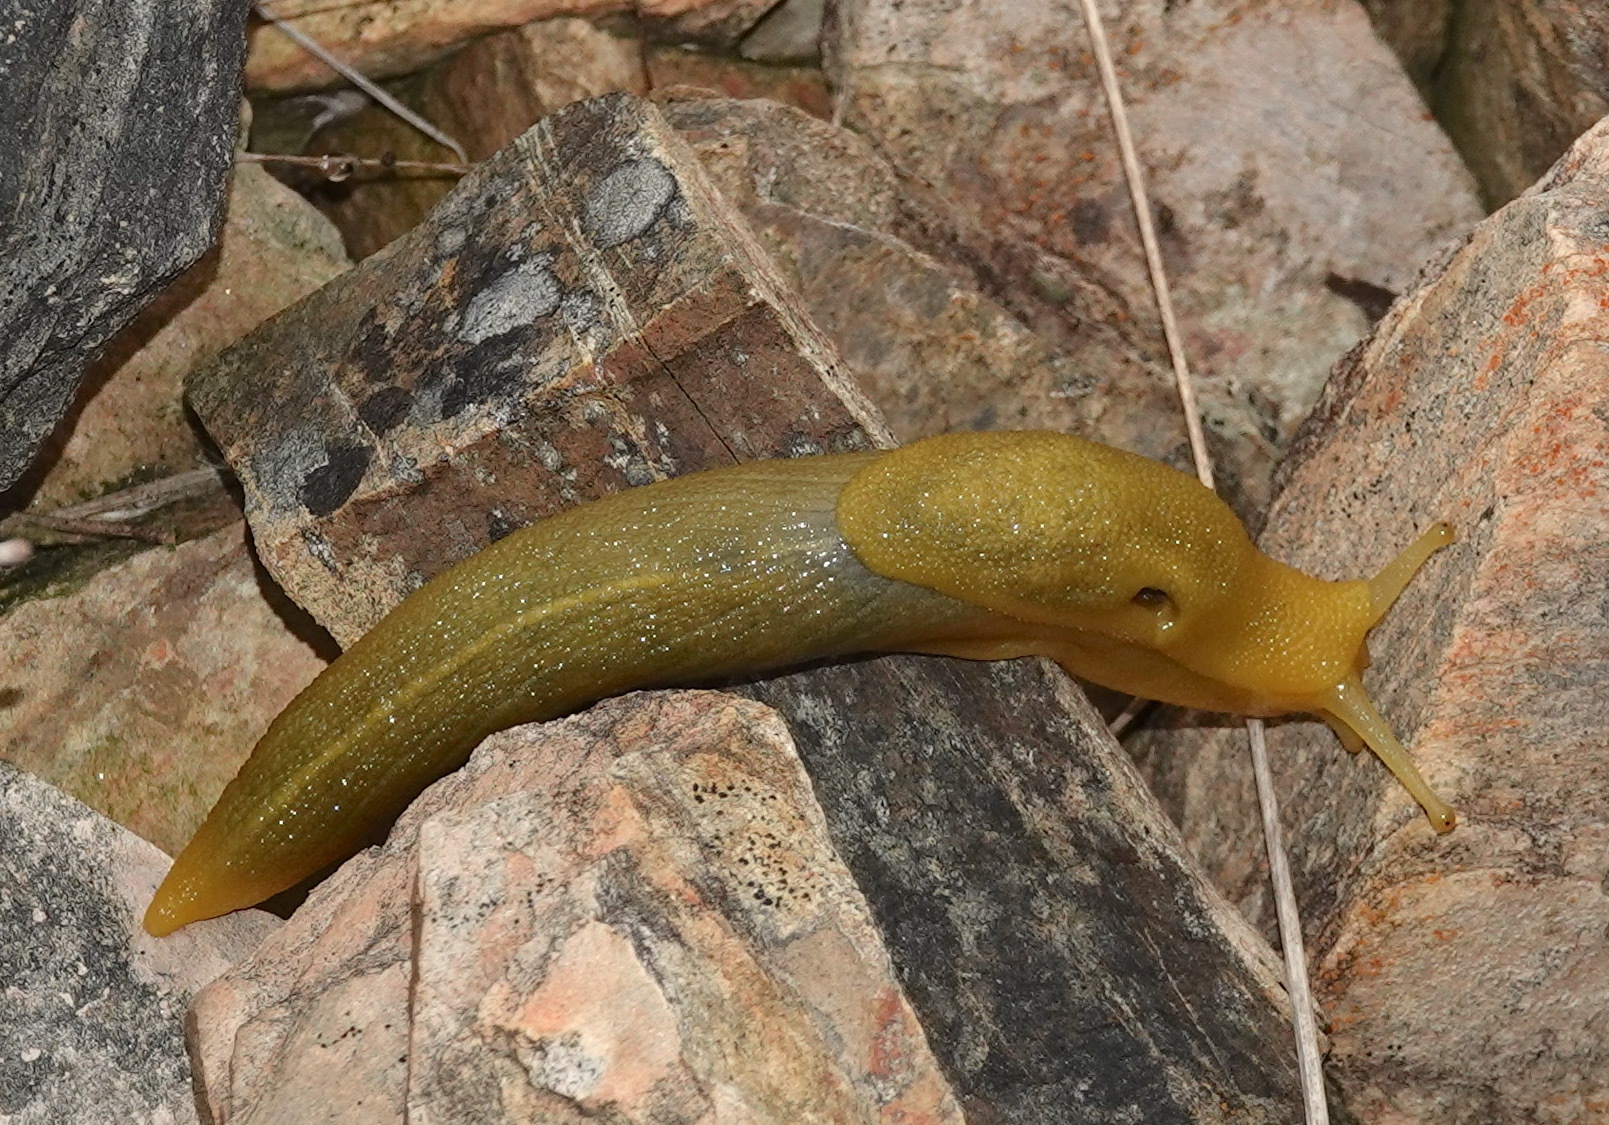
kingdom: Animalia
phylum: Mollusca
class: Gastropoda
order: Stylommatophora
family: Oopeltidae
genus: Oopelta
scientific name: Oopelta flavescens
